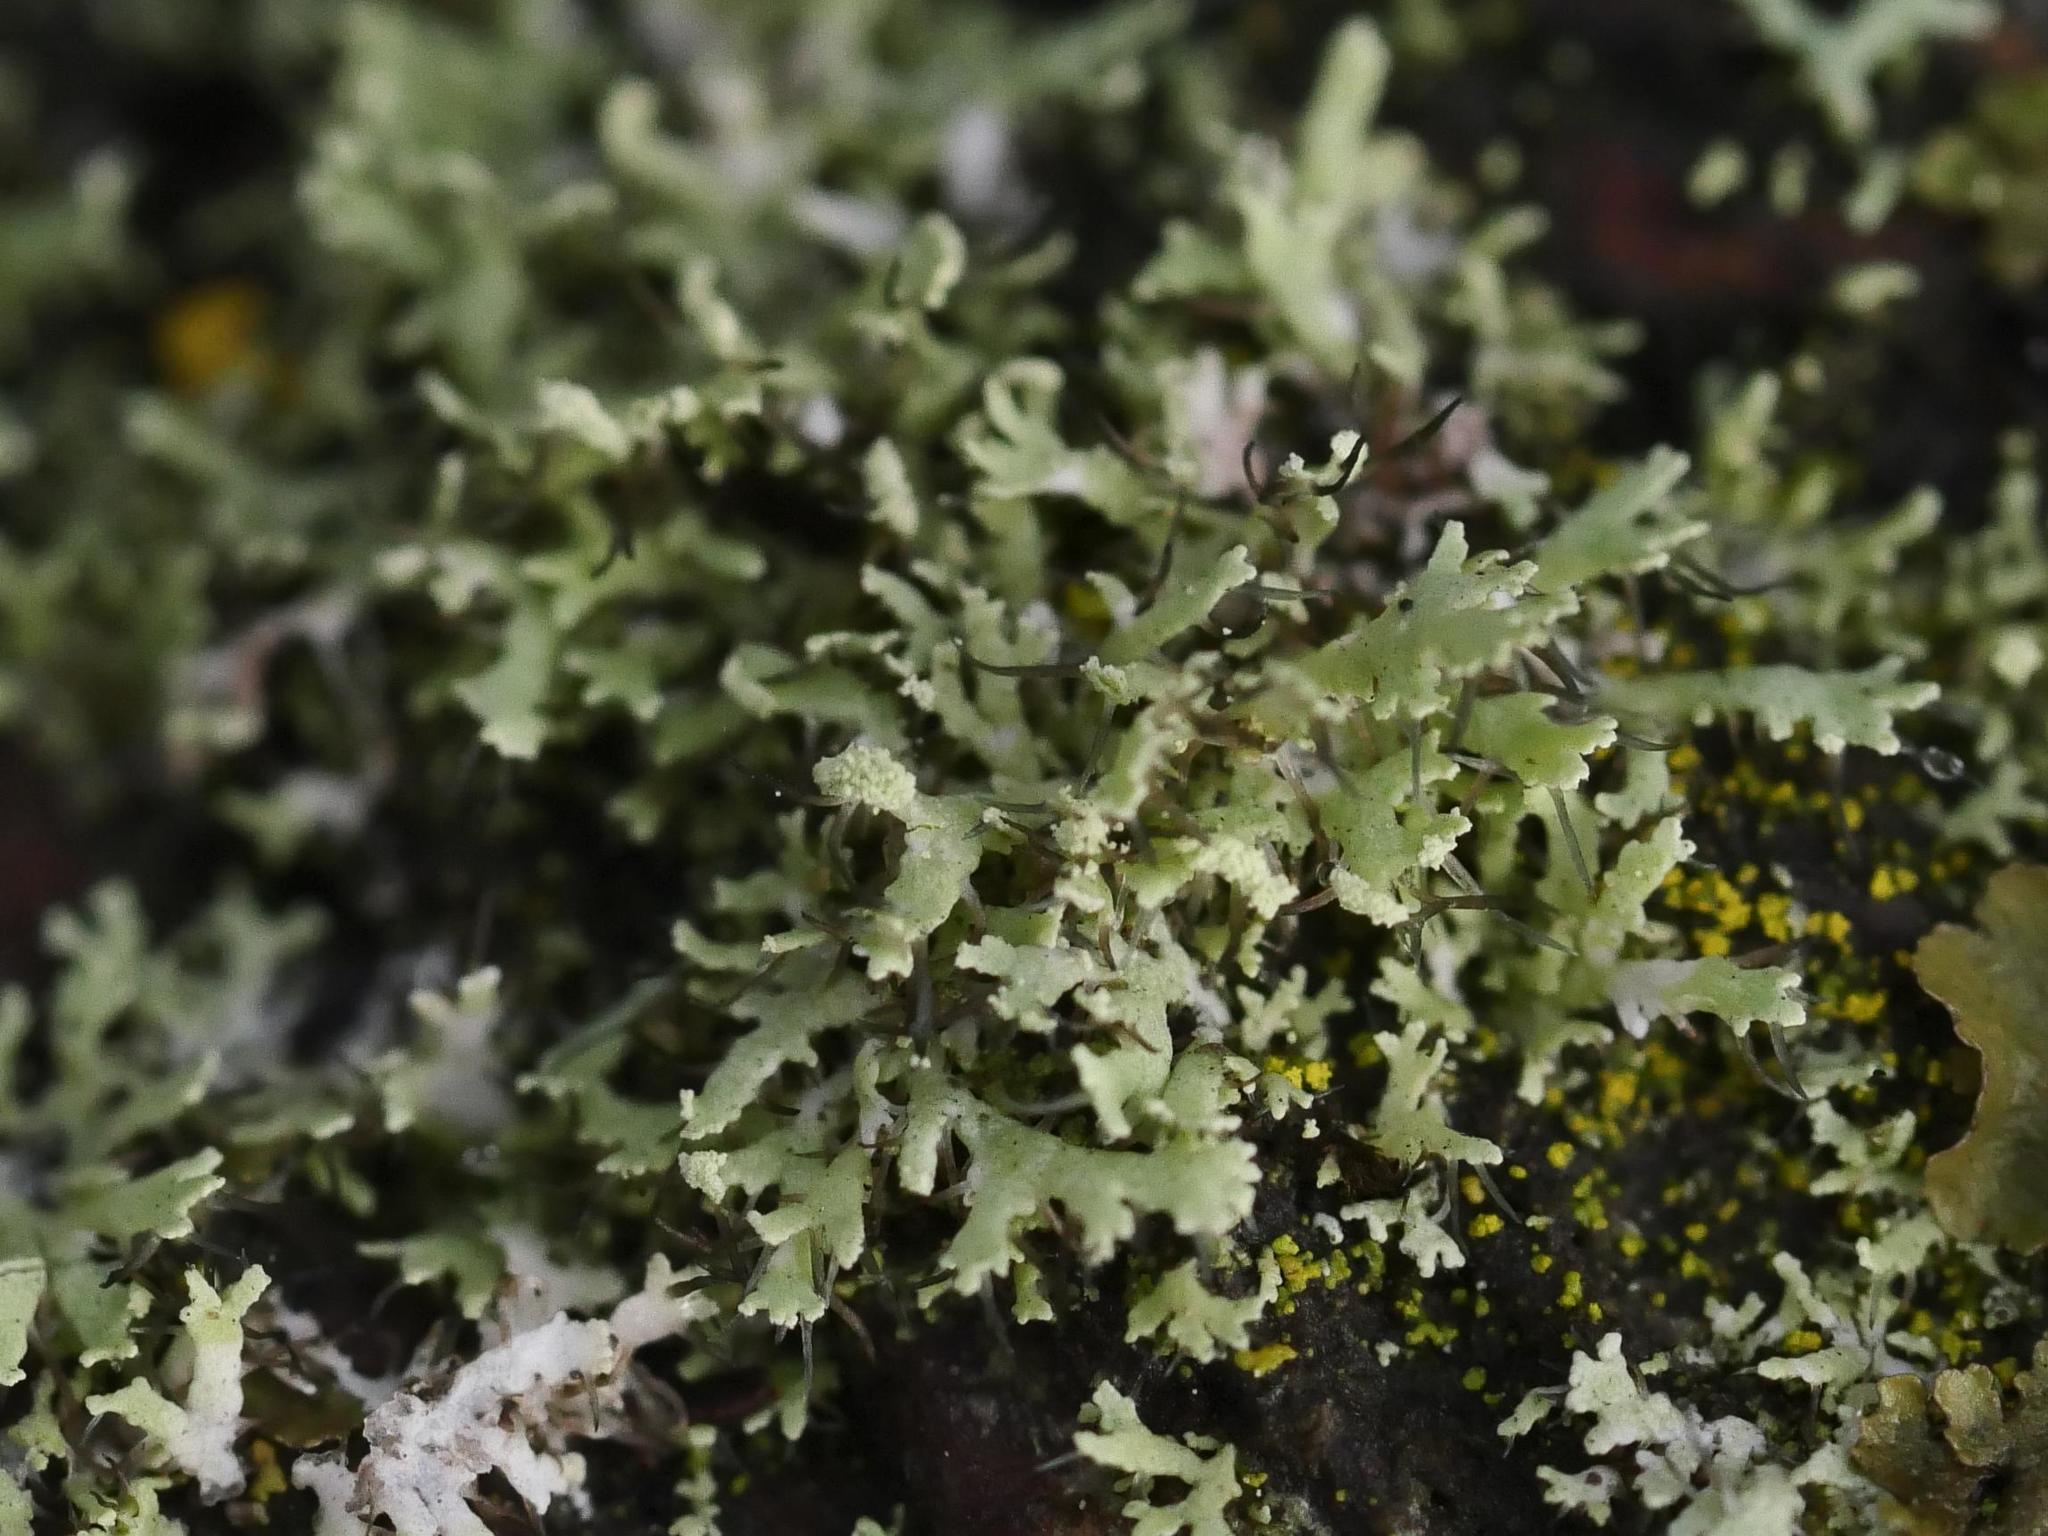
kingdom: Fungi
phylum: Ascomycota
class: Lecanoromycetes
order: Caliciales
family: Physciaceae
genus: Physcia
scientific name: Physcia tenella
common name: Fringed rosette lichen
